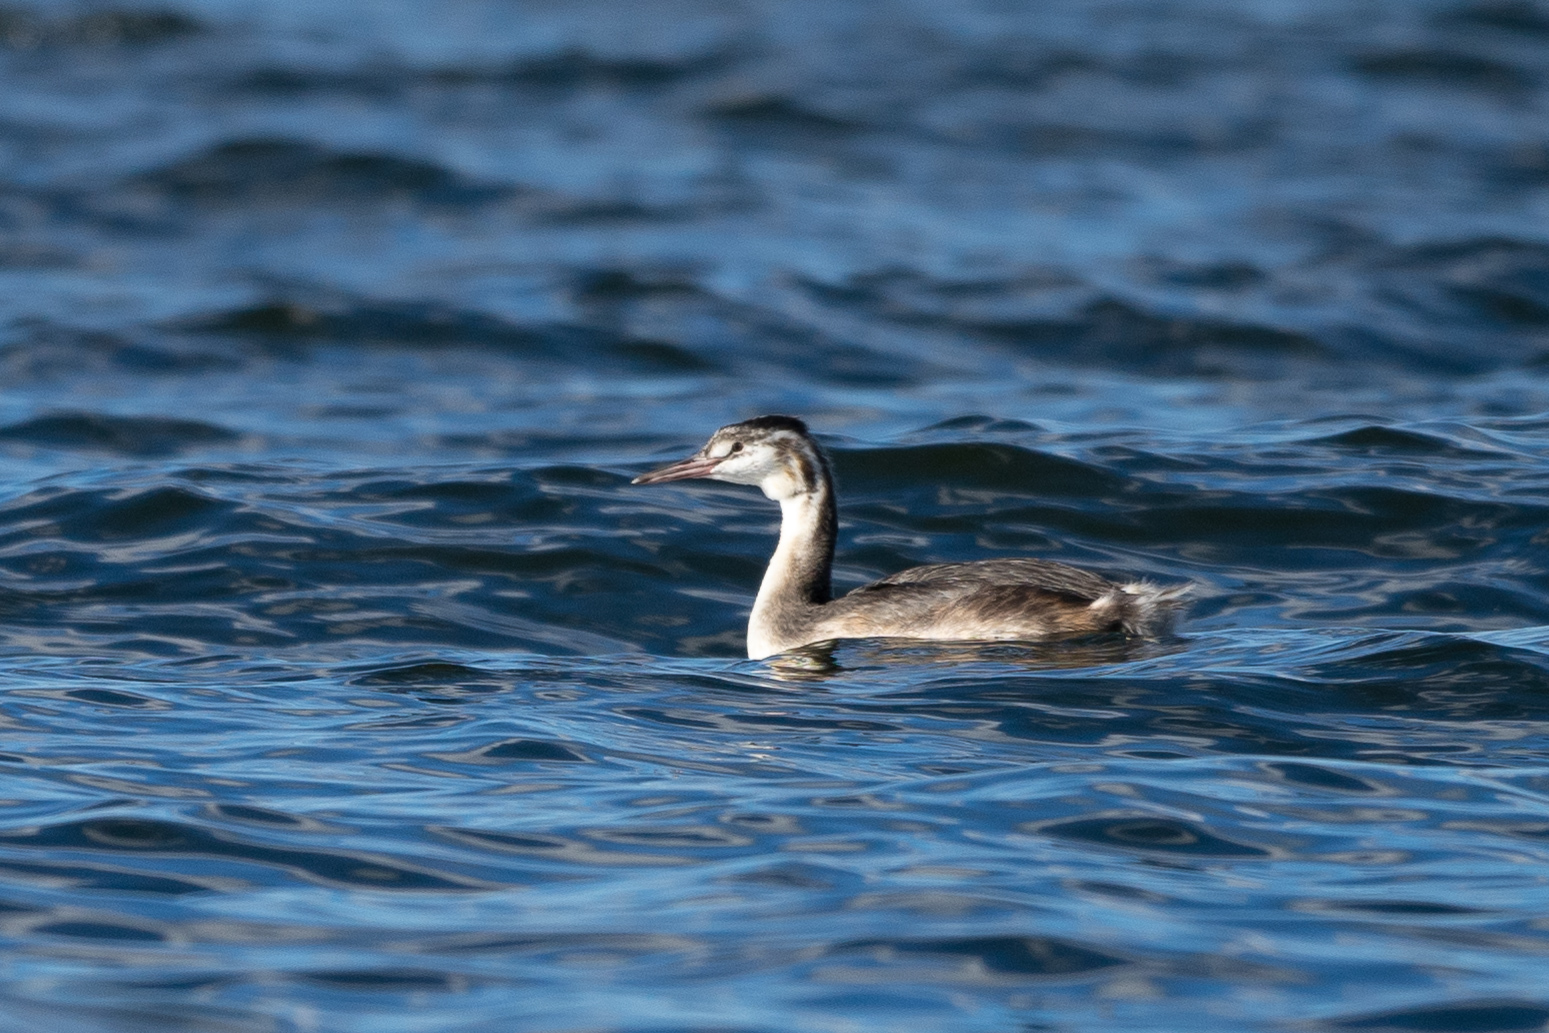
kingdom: Animalia
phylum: Chordata
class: Aves
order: Podicipediformes
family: Podicipedidae
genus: Podiceps
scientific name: Podiceps cristatus
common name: Great crested grebe
